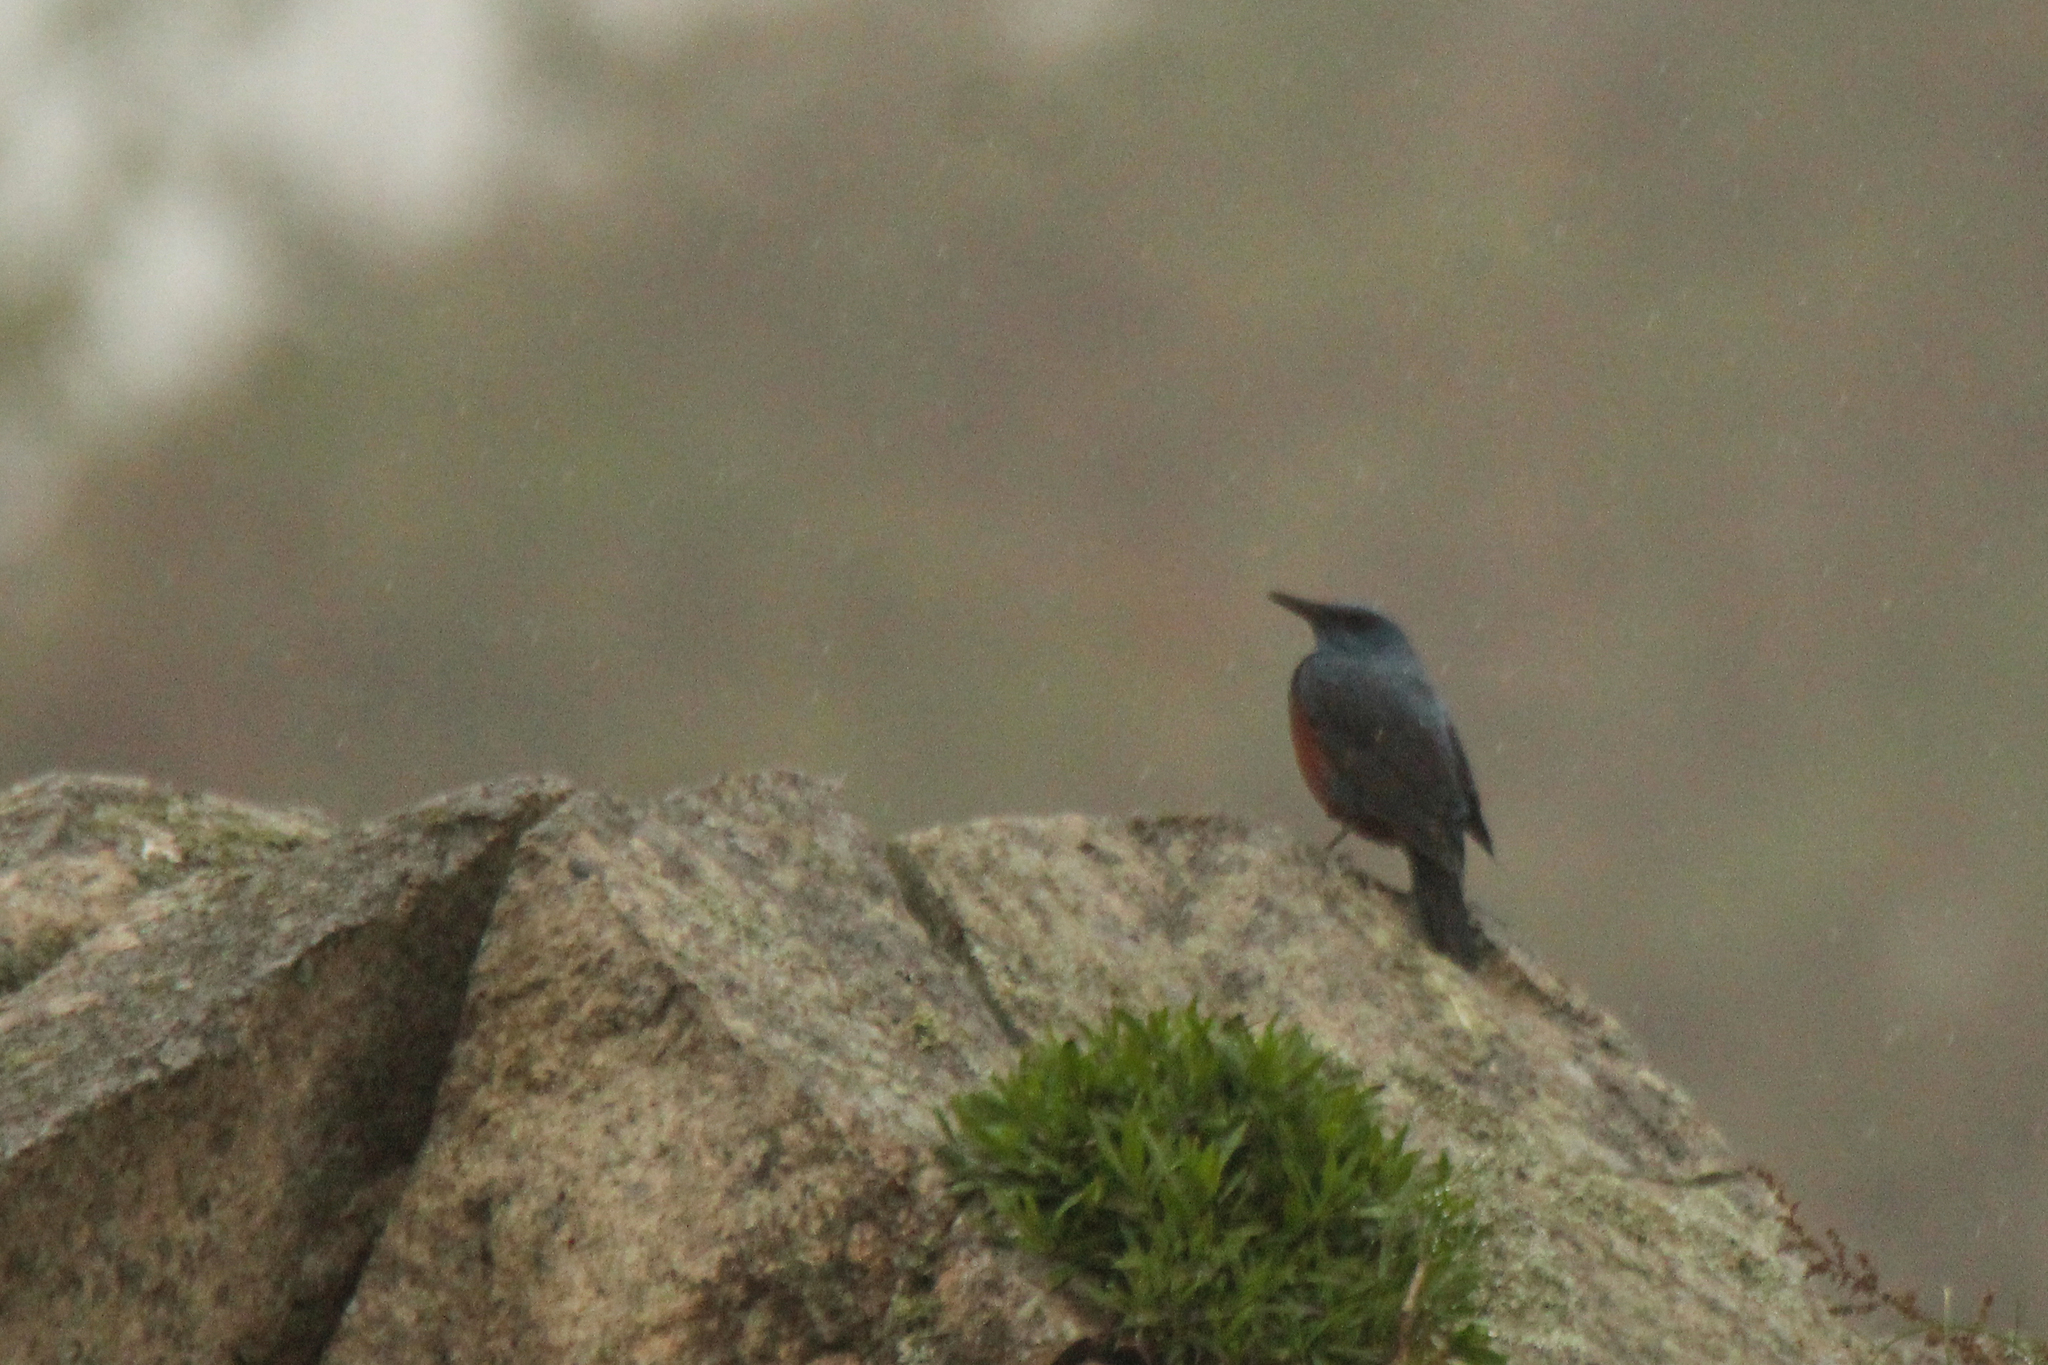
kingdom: Animalia
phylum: Chordata
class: Aves
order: Passeriformes
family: Muscicapidae
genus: Monticola
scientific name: Monticola solitarius
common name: Blue rock thrush
